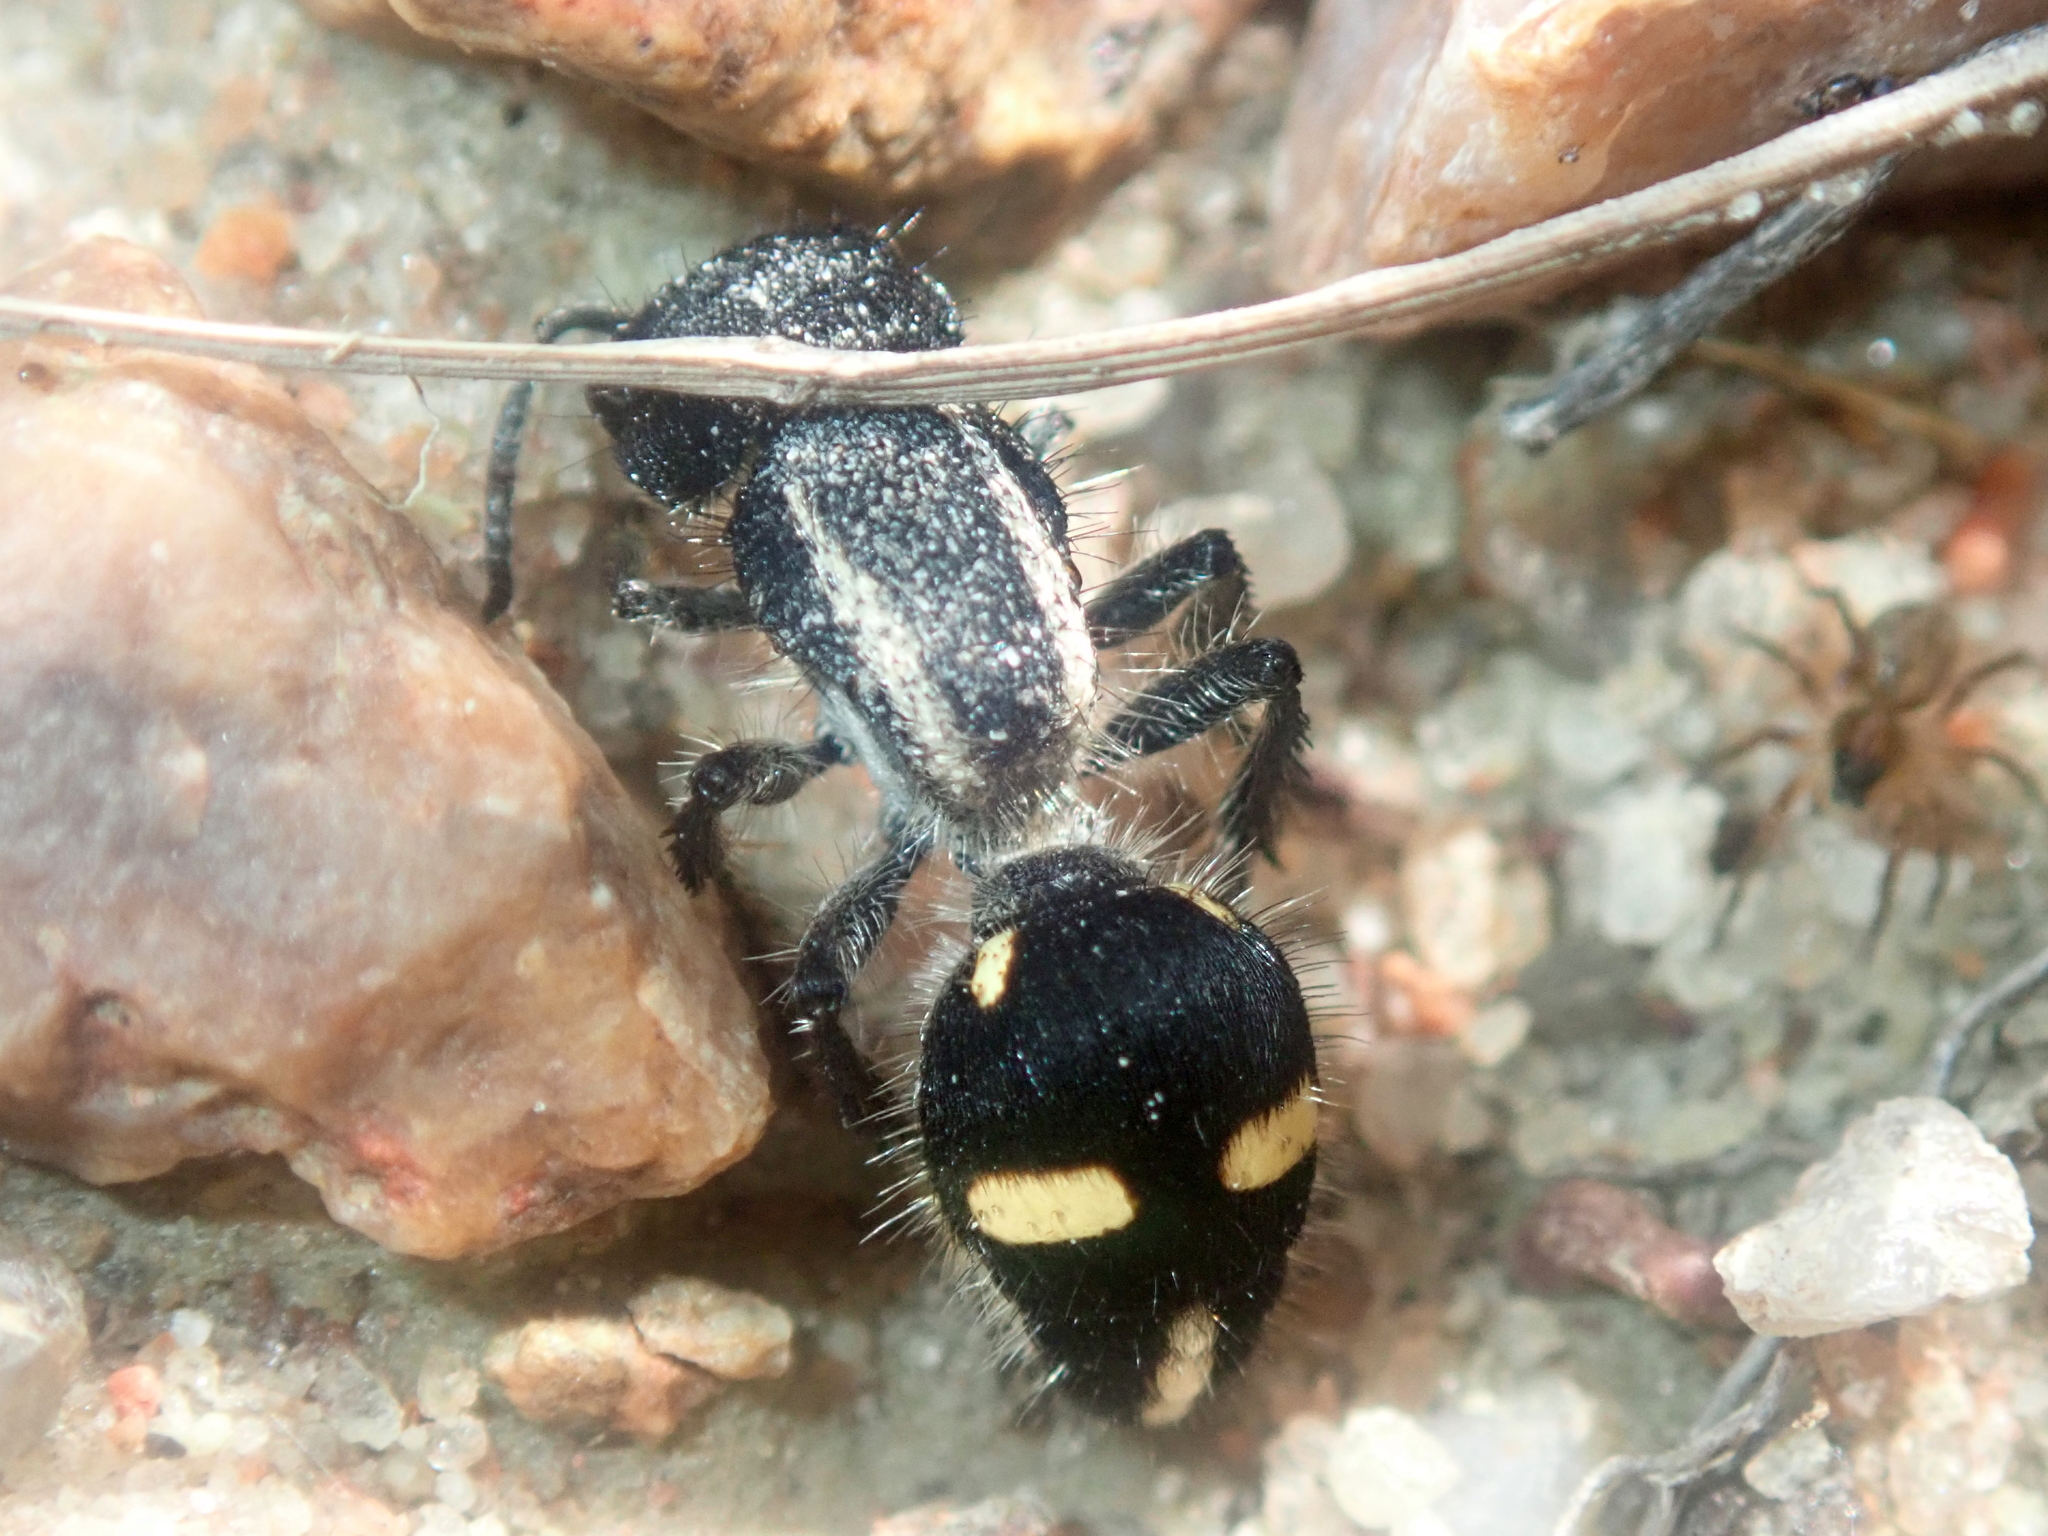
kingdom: Animalia
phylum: Arthropoda
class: Insecta
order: Hymenoptera
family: Mutillidae
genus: Cephalomutilla
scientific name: Cephalomutilla
